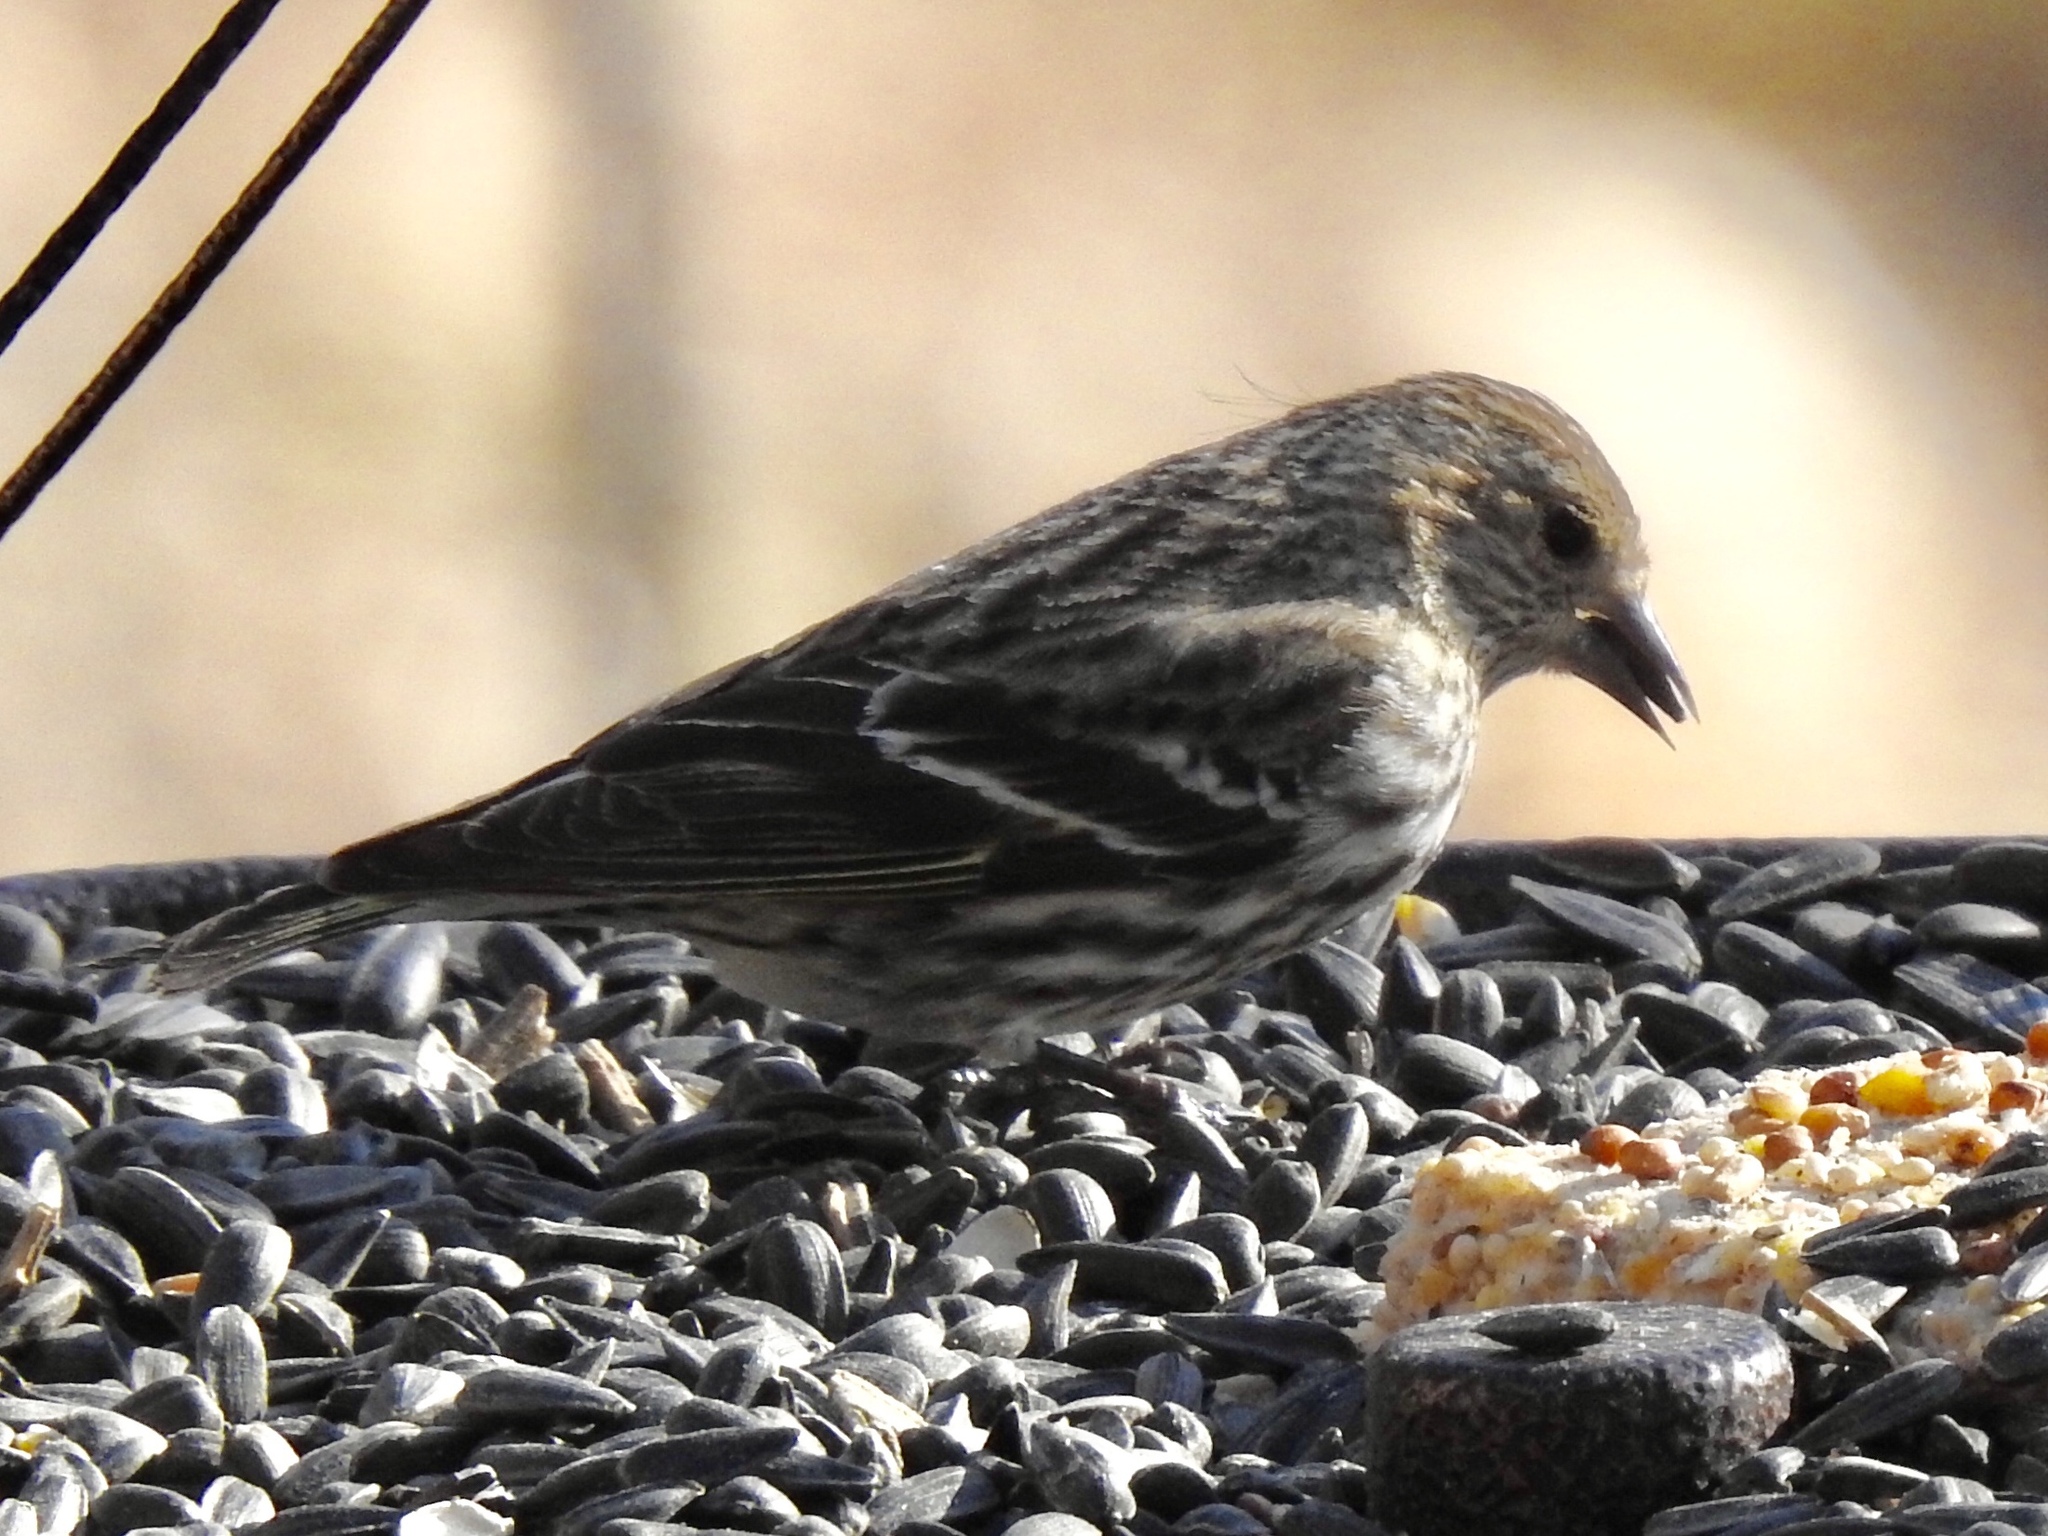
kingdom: Animalia
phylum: Chordata
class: Aves
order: Passeriformes
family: Fringillidae
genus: Spinus
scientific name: Spinus pinus
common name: Pine siskin
